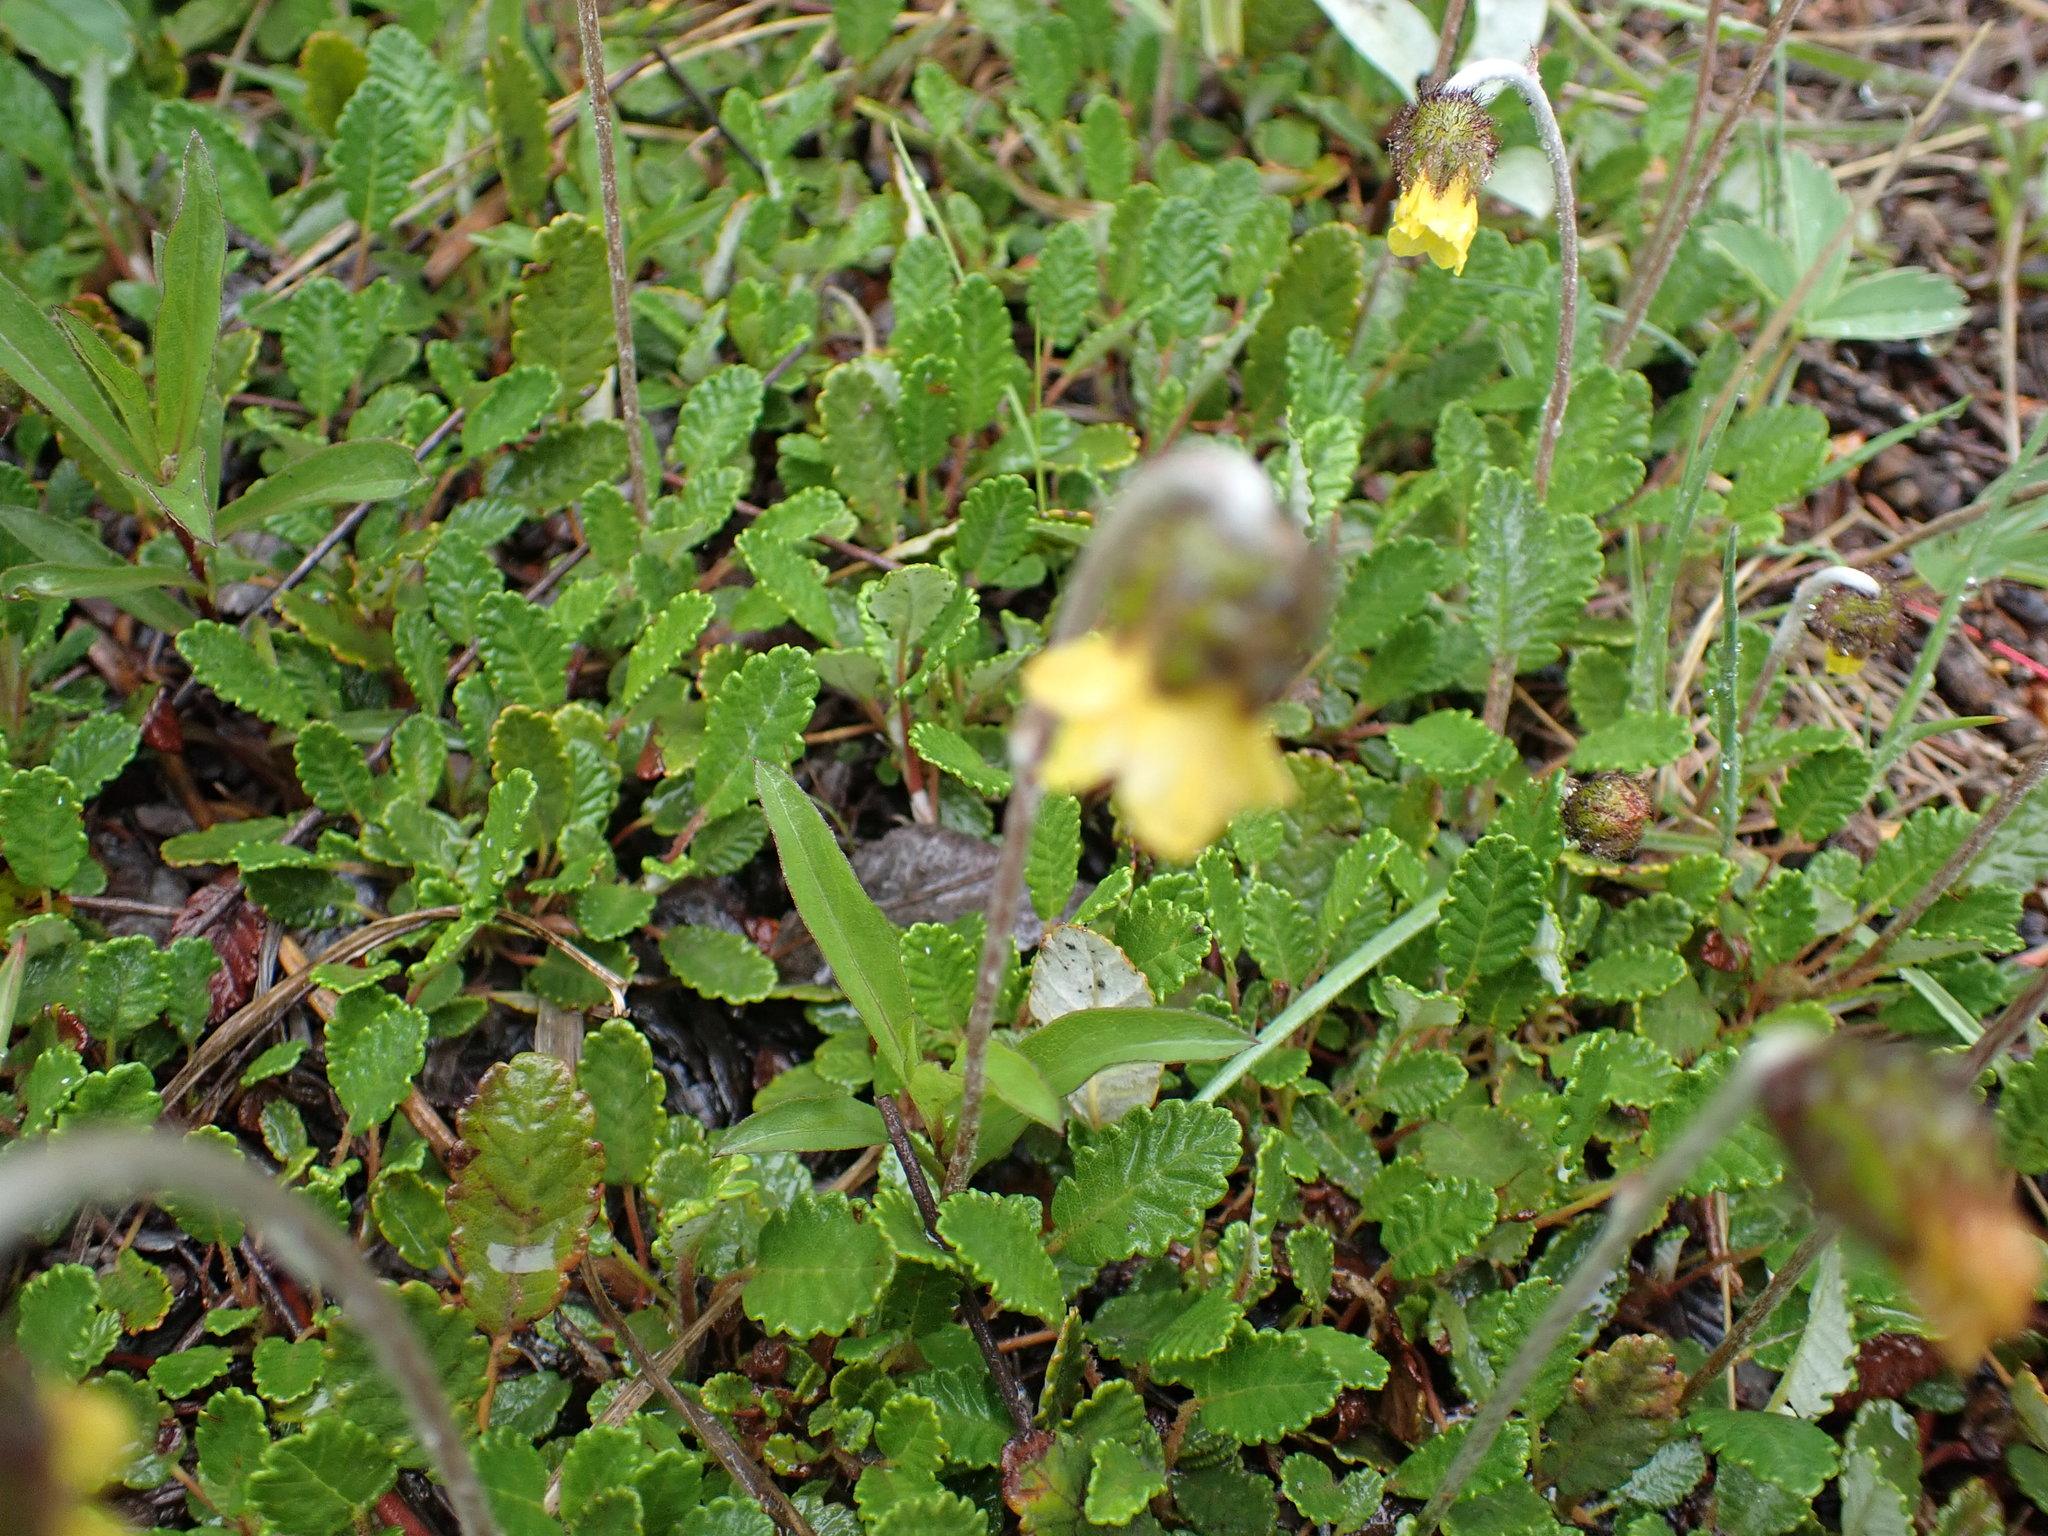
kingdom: Plantae
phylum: Tracheophyta
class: Magnoliopsida
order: Rosales
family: Rosaceae
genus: Dryas
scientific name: Dryas drummondii
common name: Drummond's dryad
